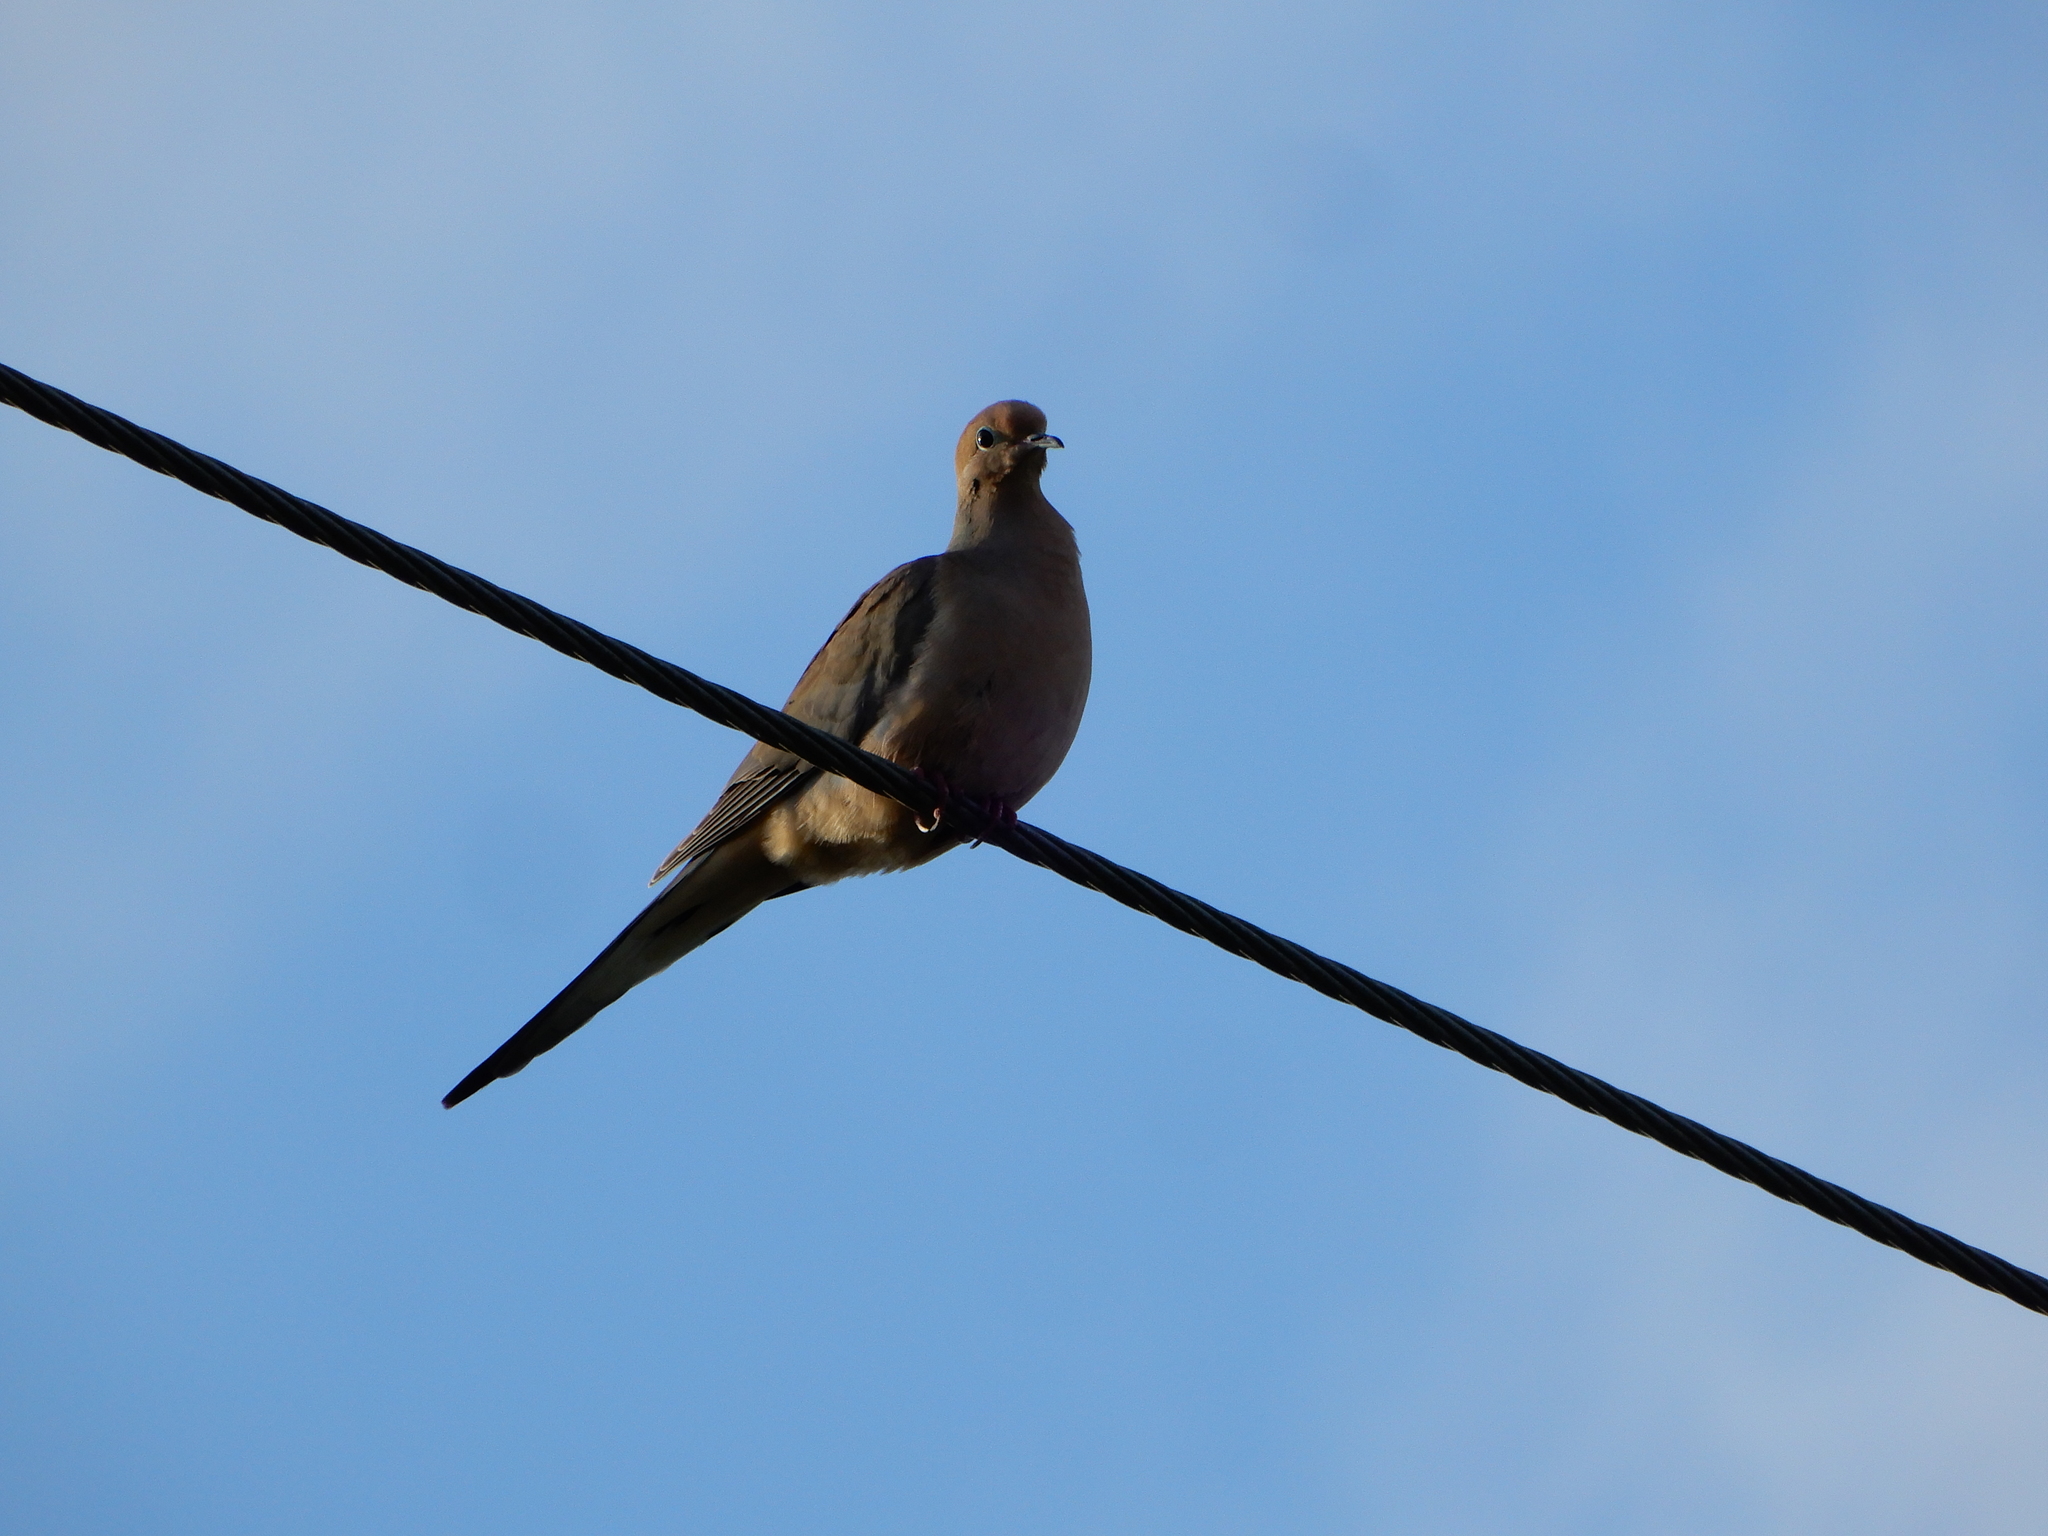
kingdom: Animalia
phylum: Chordata
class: Aves
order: Columbiformes
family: Columbidae
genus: Zenaida
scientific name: Zenaida macroura
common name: Mourning dove
